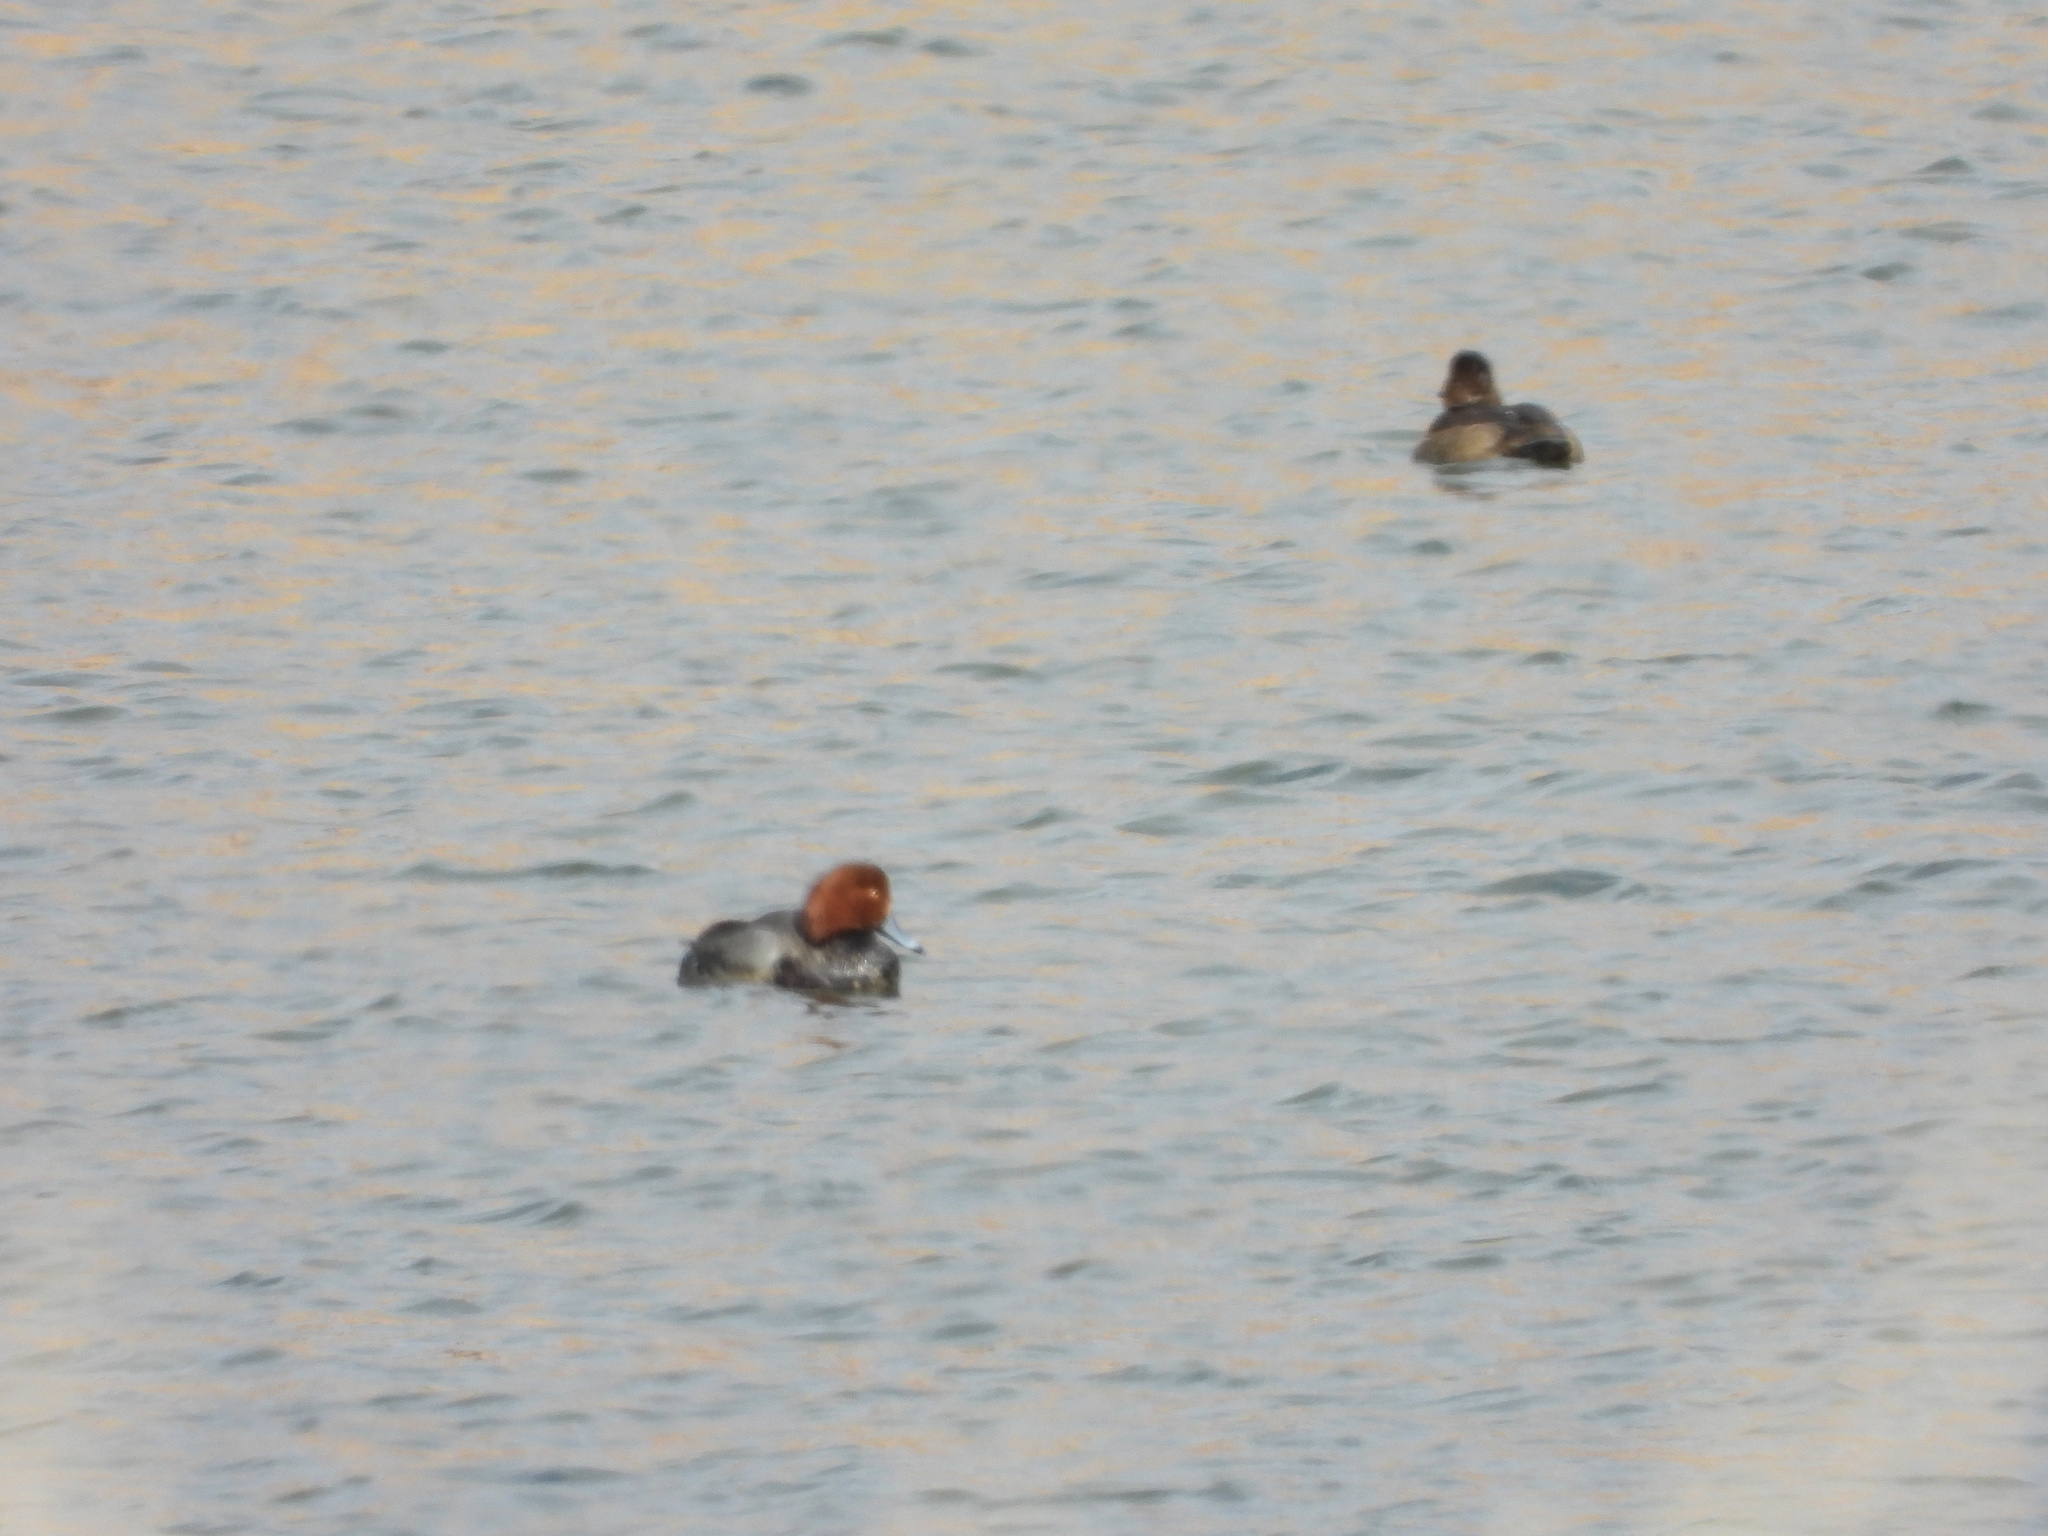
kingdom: Animalia
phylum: Chordata
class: Aves
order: Anseriformes
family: Anatidae
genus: Aythya
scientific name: Aythya americana
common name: Redhead
